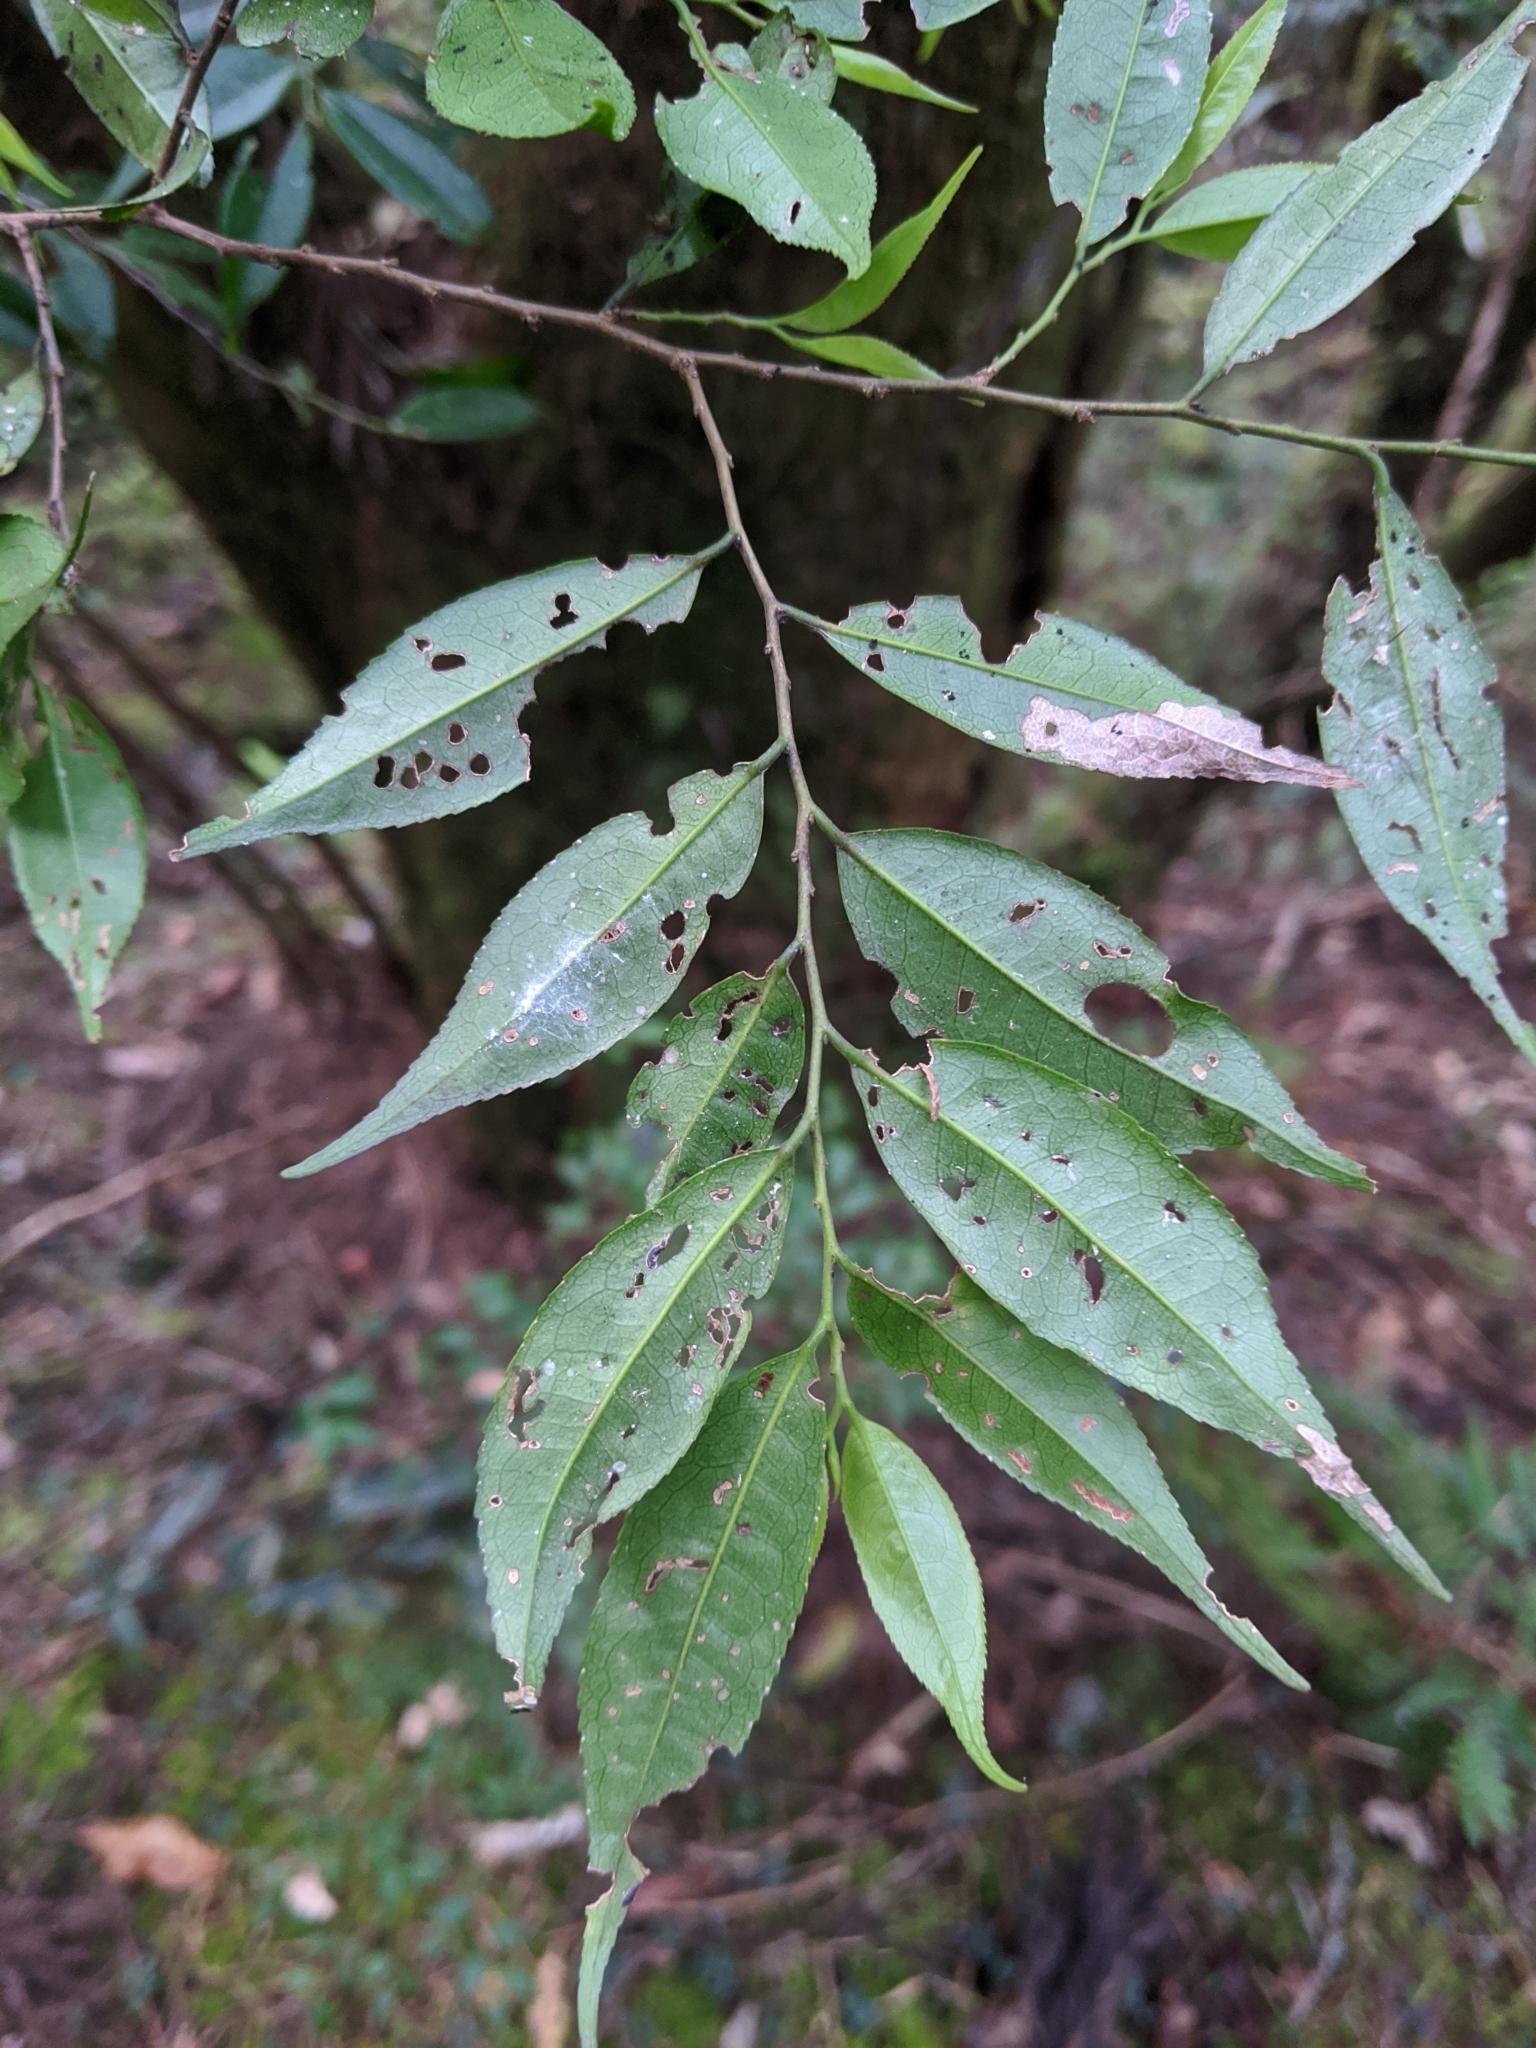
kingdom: Plantae
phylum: Tracheophyta
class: Magnoliopsida
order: Ericales
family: Pentaphylacaceae
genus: Eurya
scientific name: Eurya loquaiana
